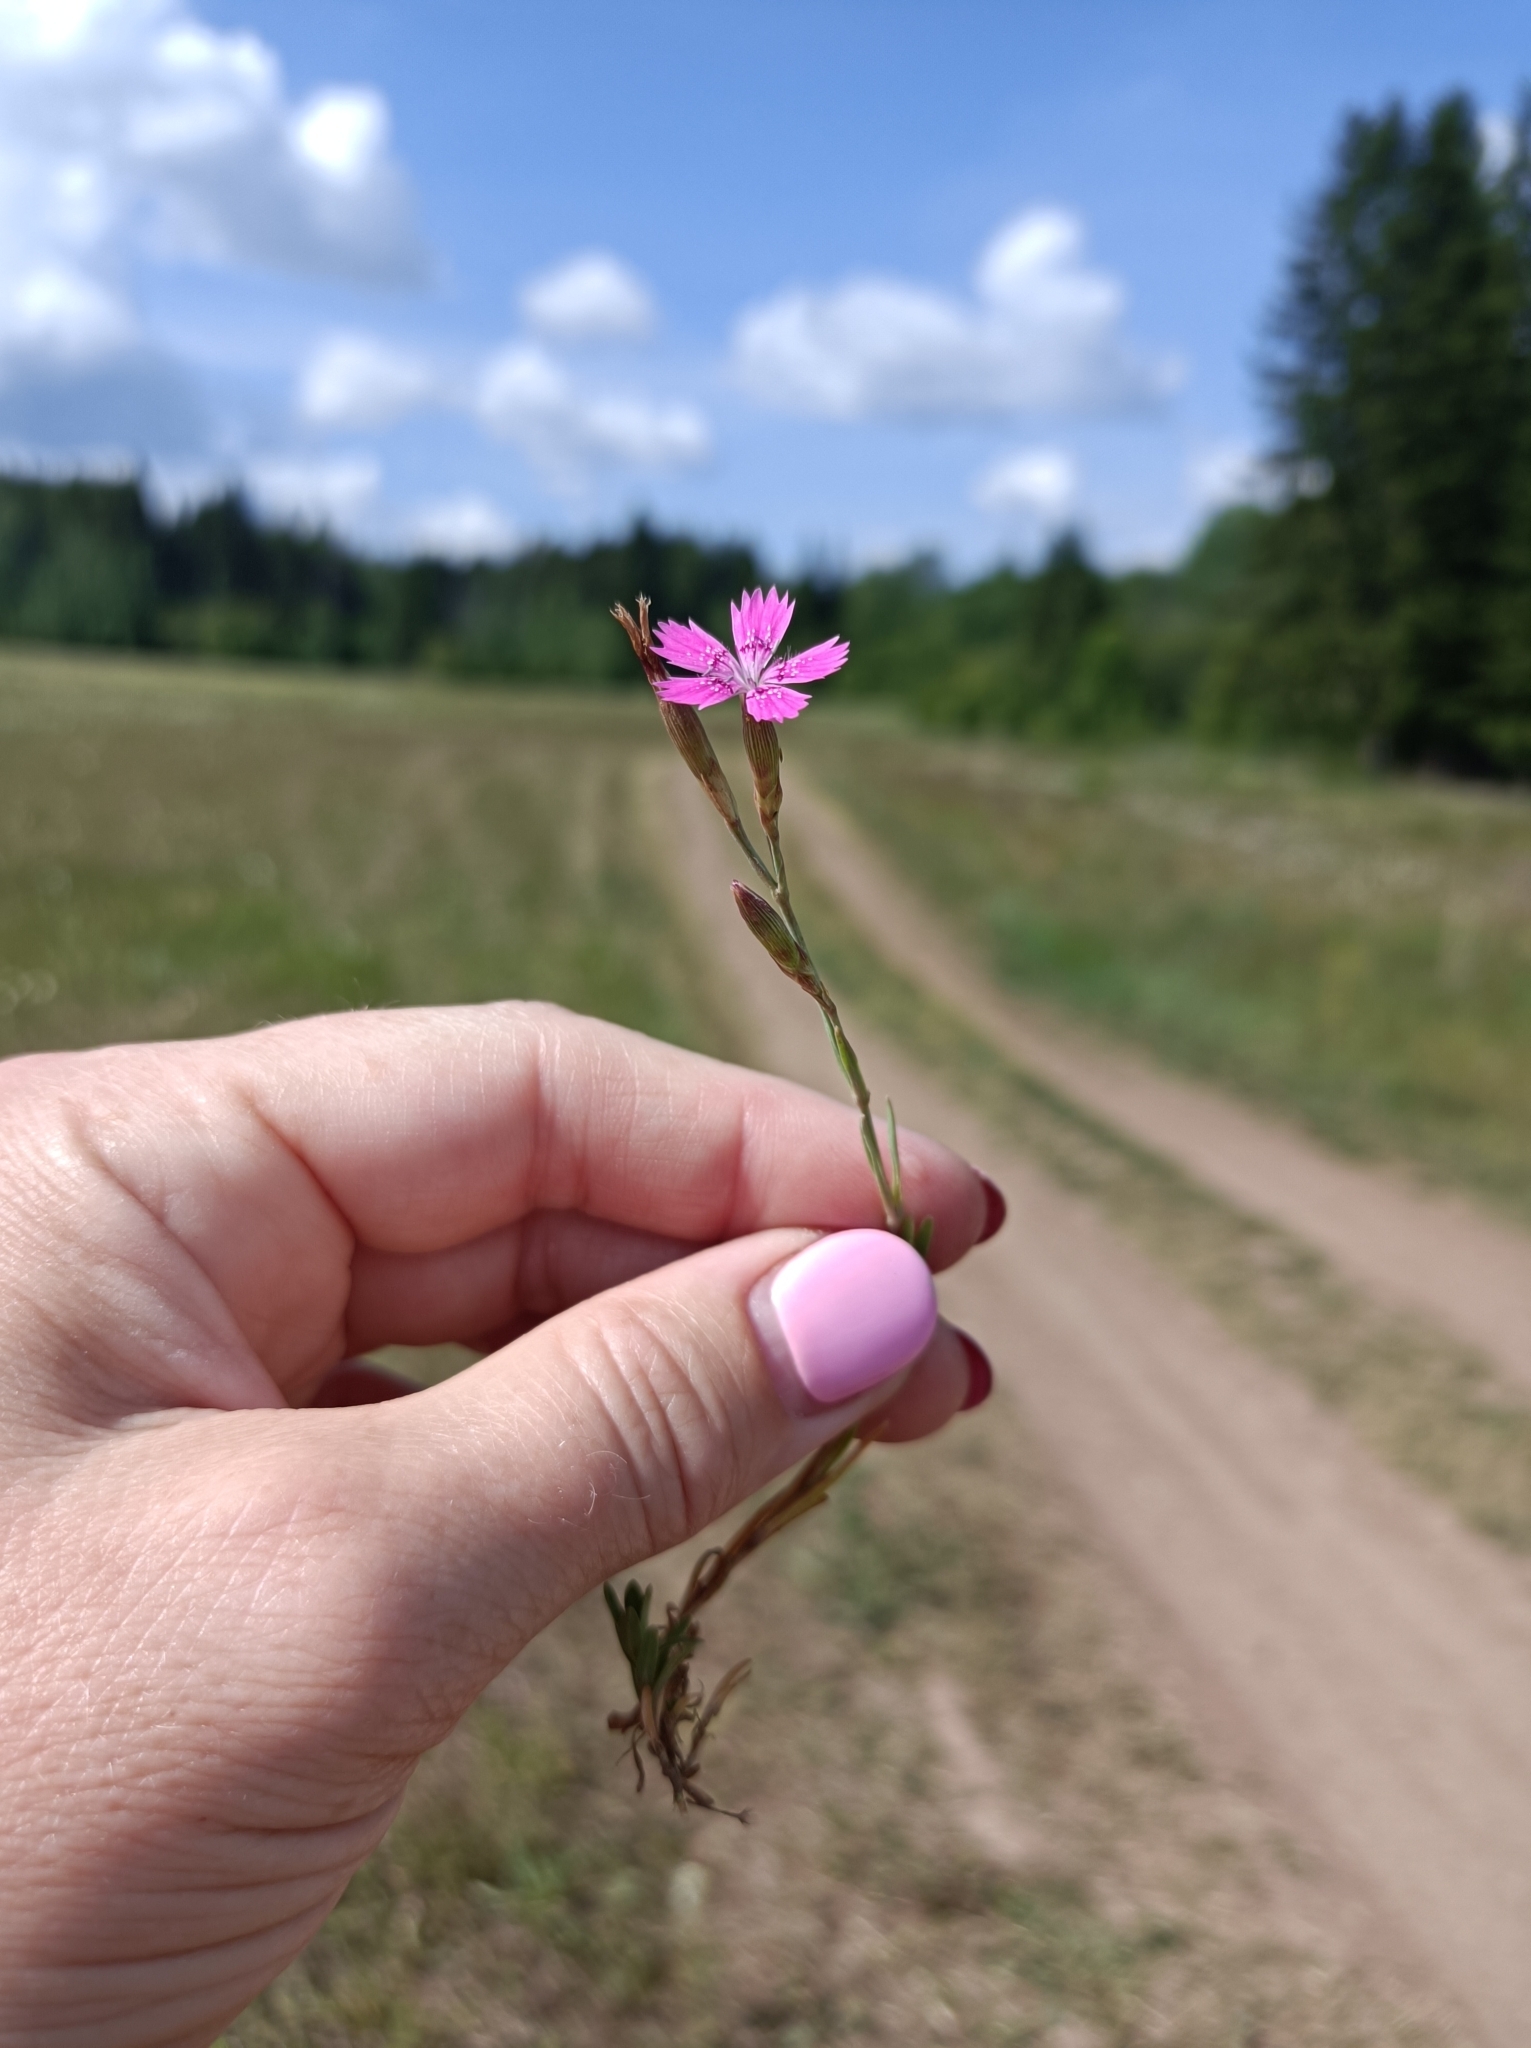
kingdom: Plantae
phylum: Tracheophyta
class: Magnoliopsida
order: Caryophyllales
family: Caryophyllaceae
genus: Dianthus
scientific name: Dianthus deltoides
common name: Maiden pink
